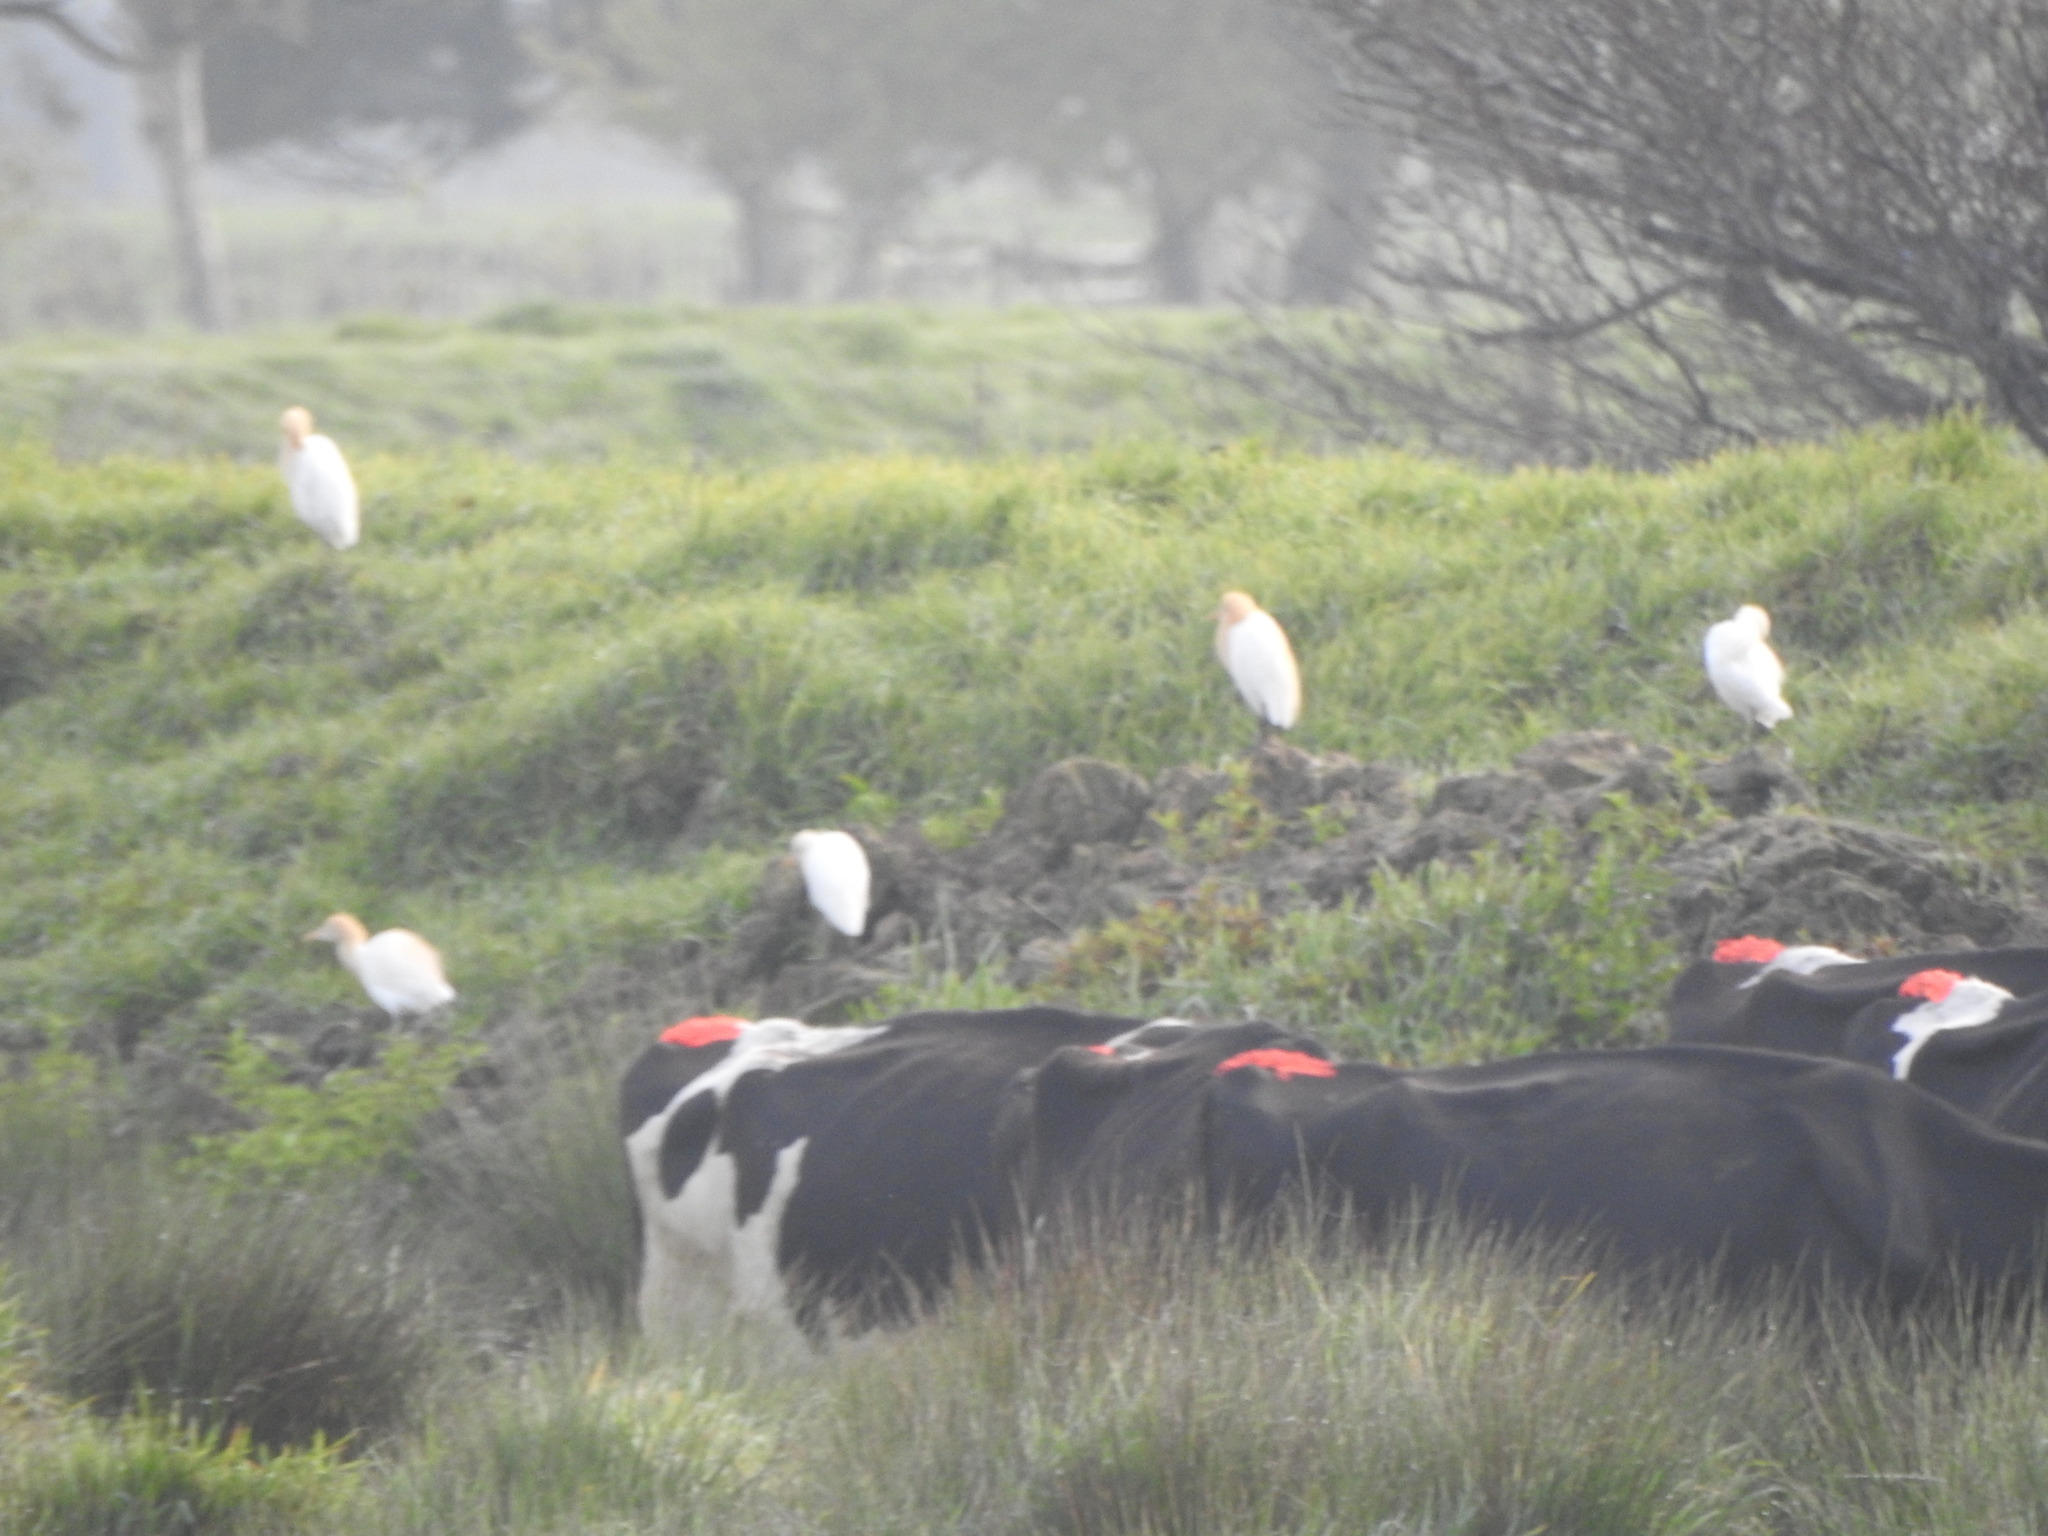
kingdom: Animalia
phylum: Chordata
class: Aves
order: Pelecaniformes
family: Ardeidae
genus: Bubulcus
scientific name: Bubulcus coromandus
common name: Eastern cattle egret
